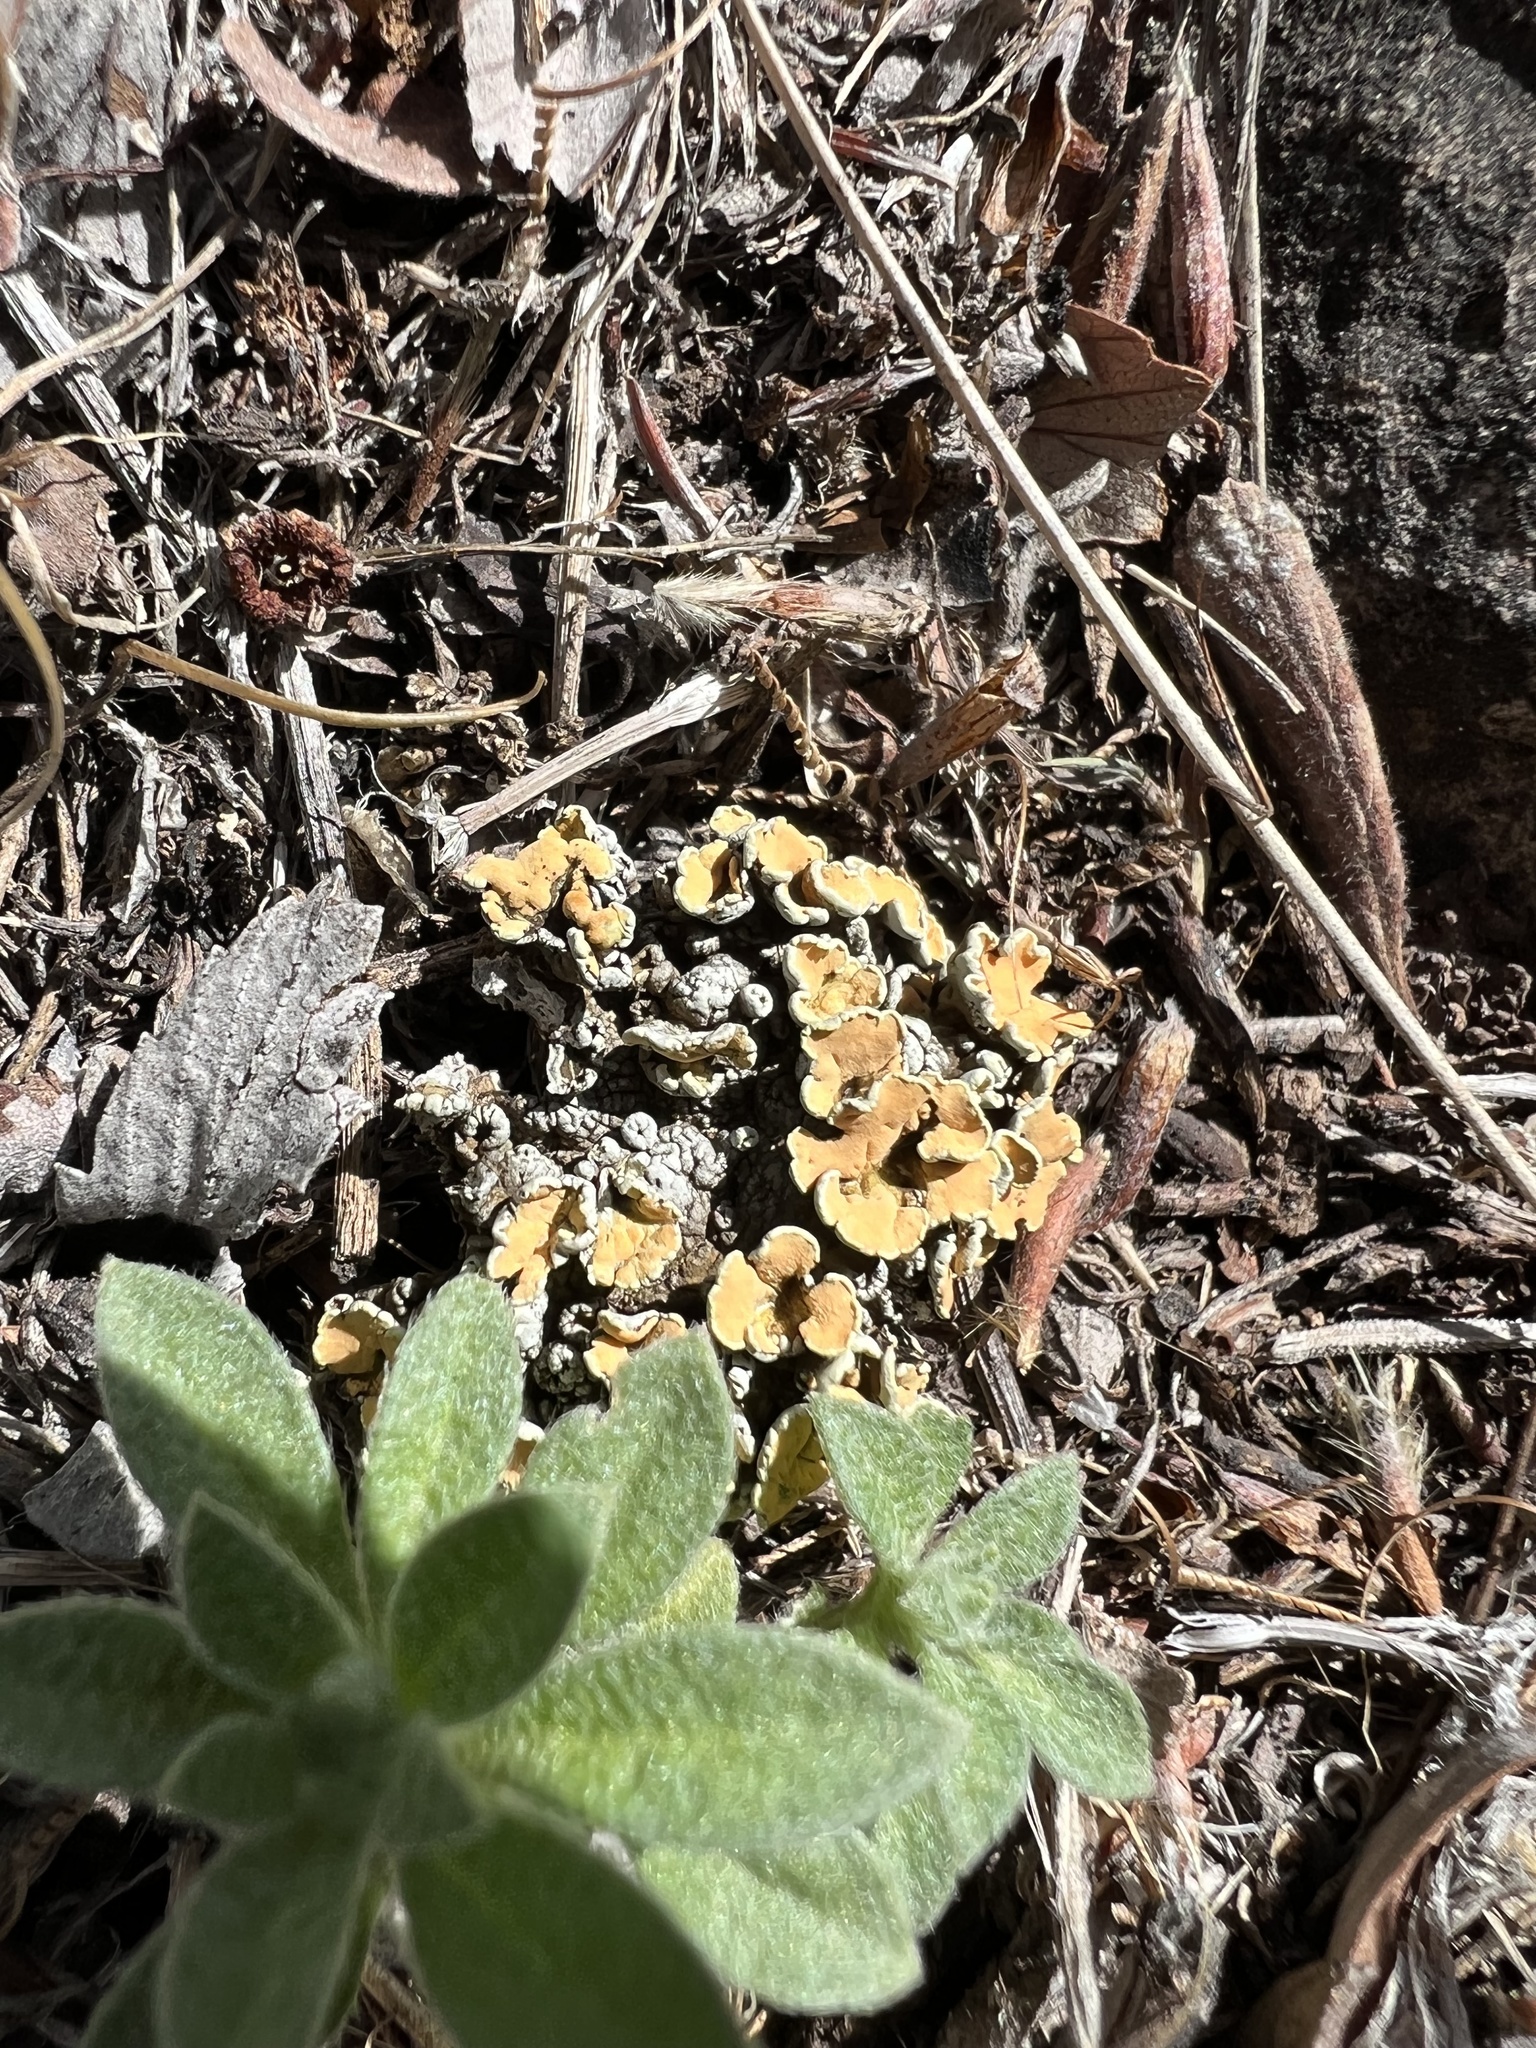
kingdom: Fungi
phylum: Ascomycota
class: Lecanoromycetes
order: Lecanorales
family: Lecanoraceae
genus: Omphalodina
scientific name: Omphalodina chrysoleuca
